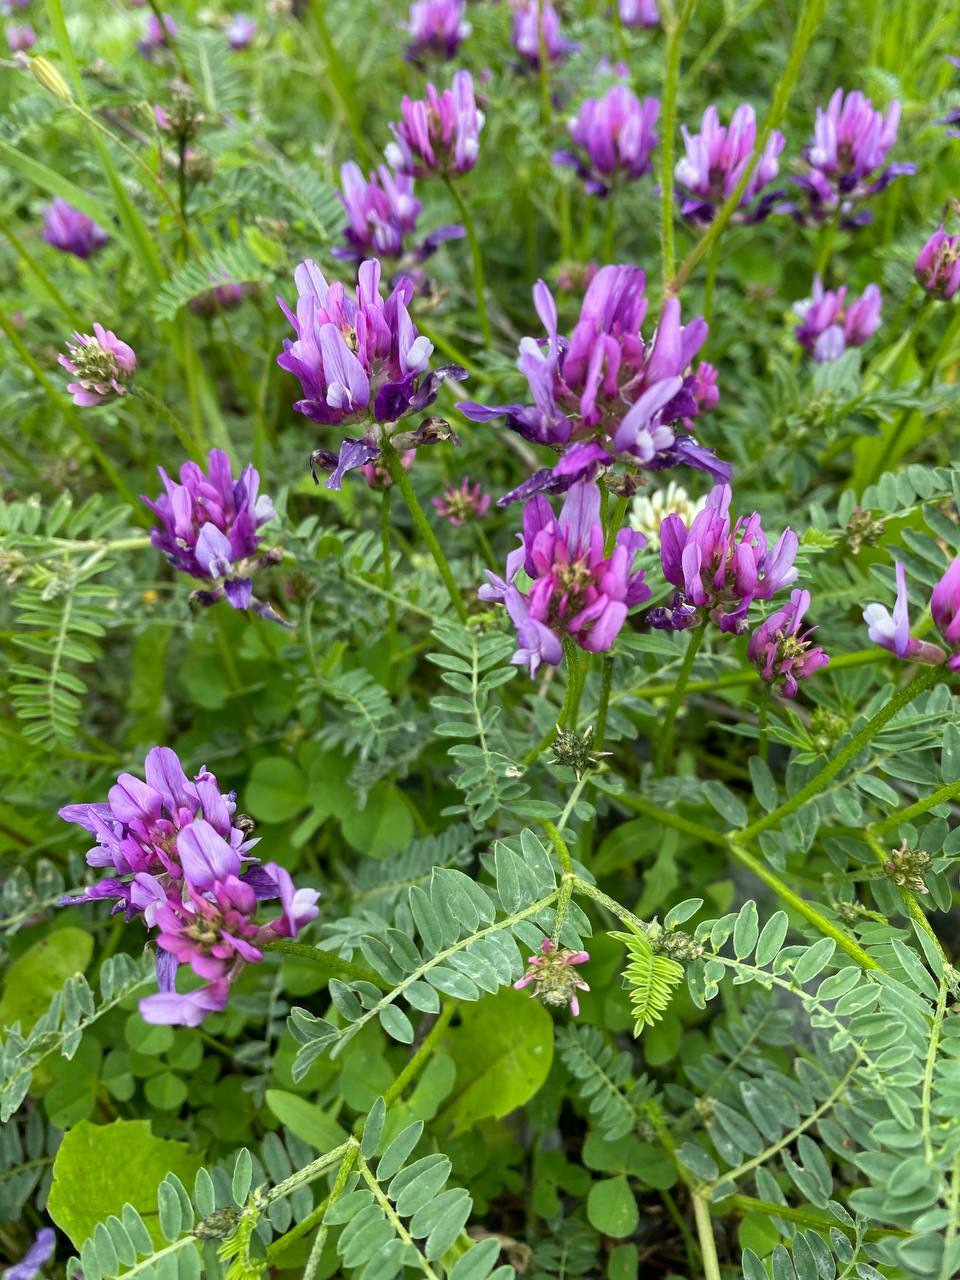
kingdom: Plantae
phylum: Tracheophyta
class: Magnoliopsida
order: Fabales
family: Fabaceae
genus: Astragalus
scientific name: Astragalus onobrychis
